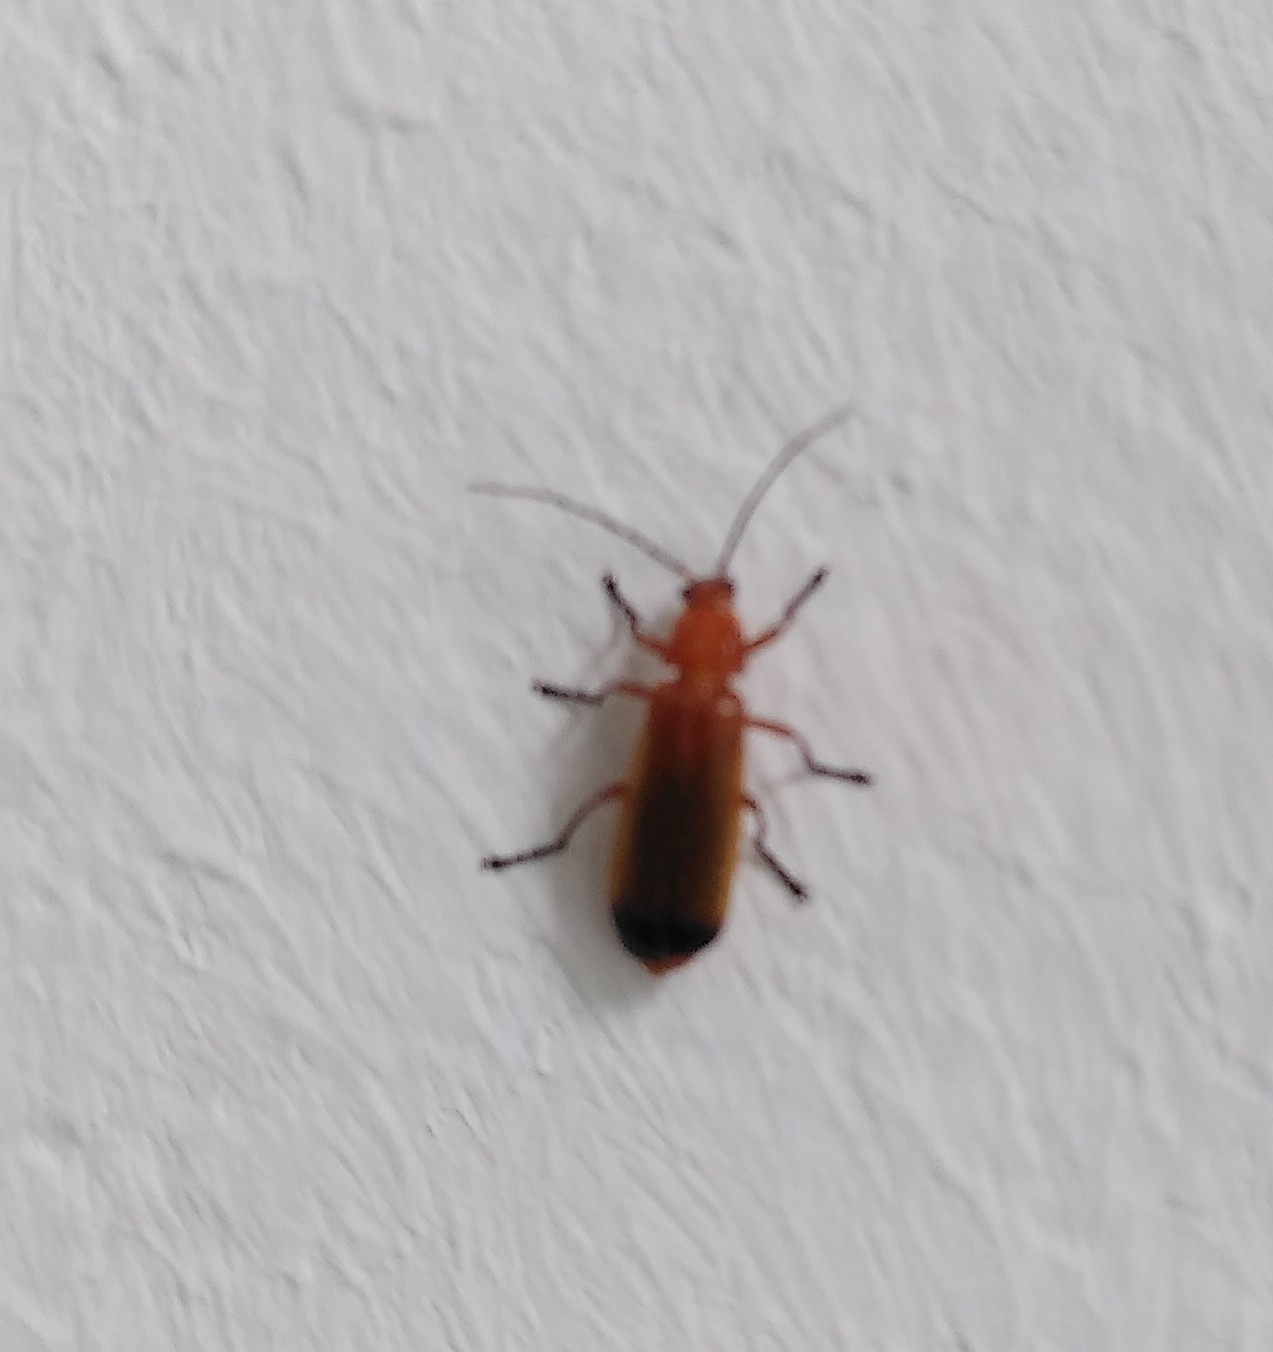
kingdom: Animalia
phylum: Arthropoda
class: Insecta
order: Coleoptera
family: Cantharidae
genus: Rhagonycha
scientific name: Rhagonycha fulva
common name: Common red soldier beetle
